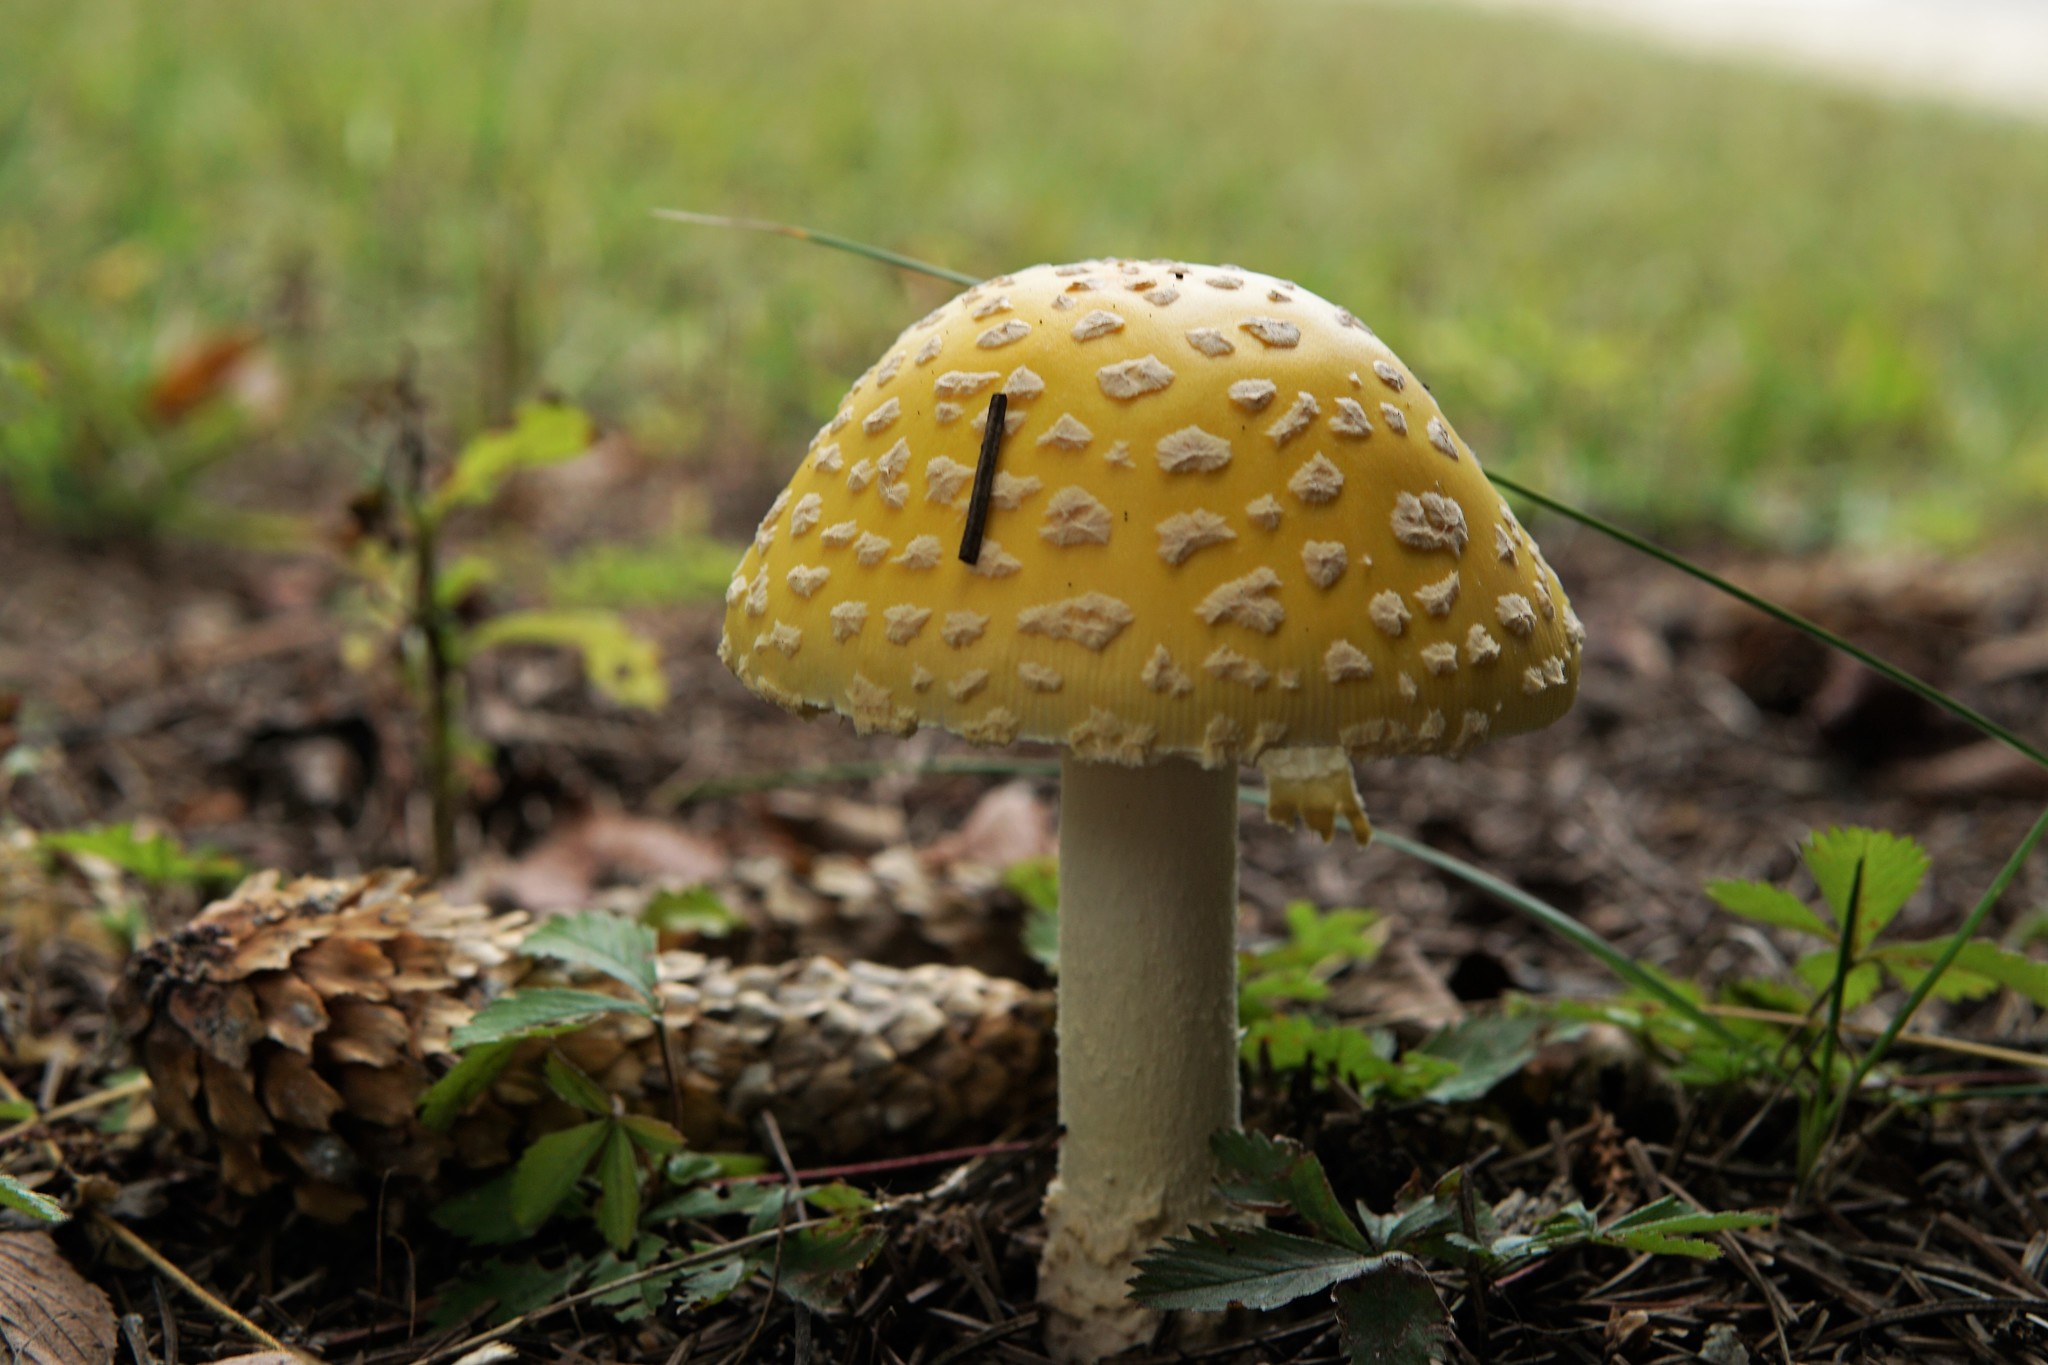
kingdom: Fungi
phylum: Basidiomycota
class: Agaricomycetes
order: Agaricales
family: Amanitaceae
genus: Amanita
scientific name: Amanita muscaria
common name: Fly agaric
